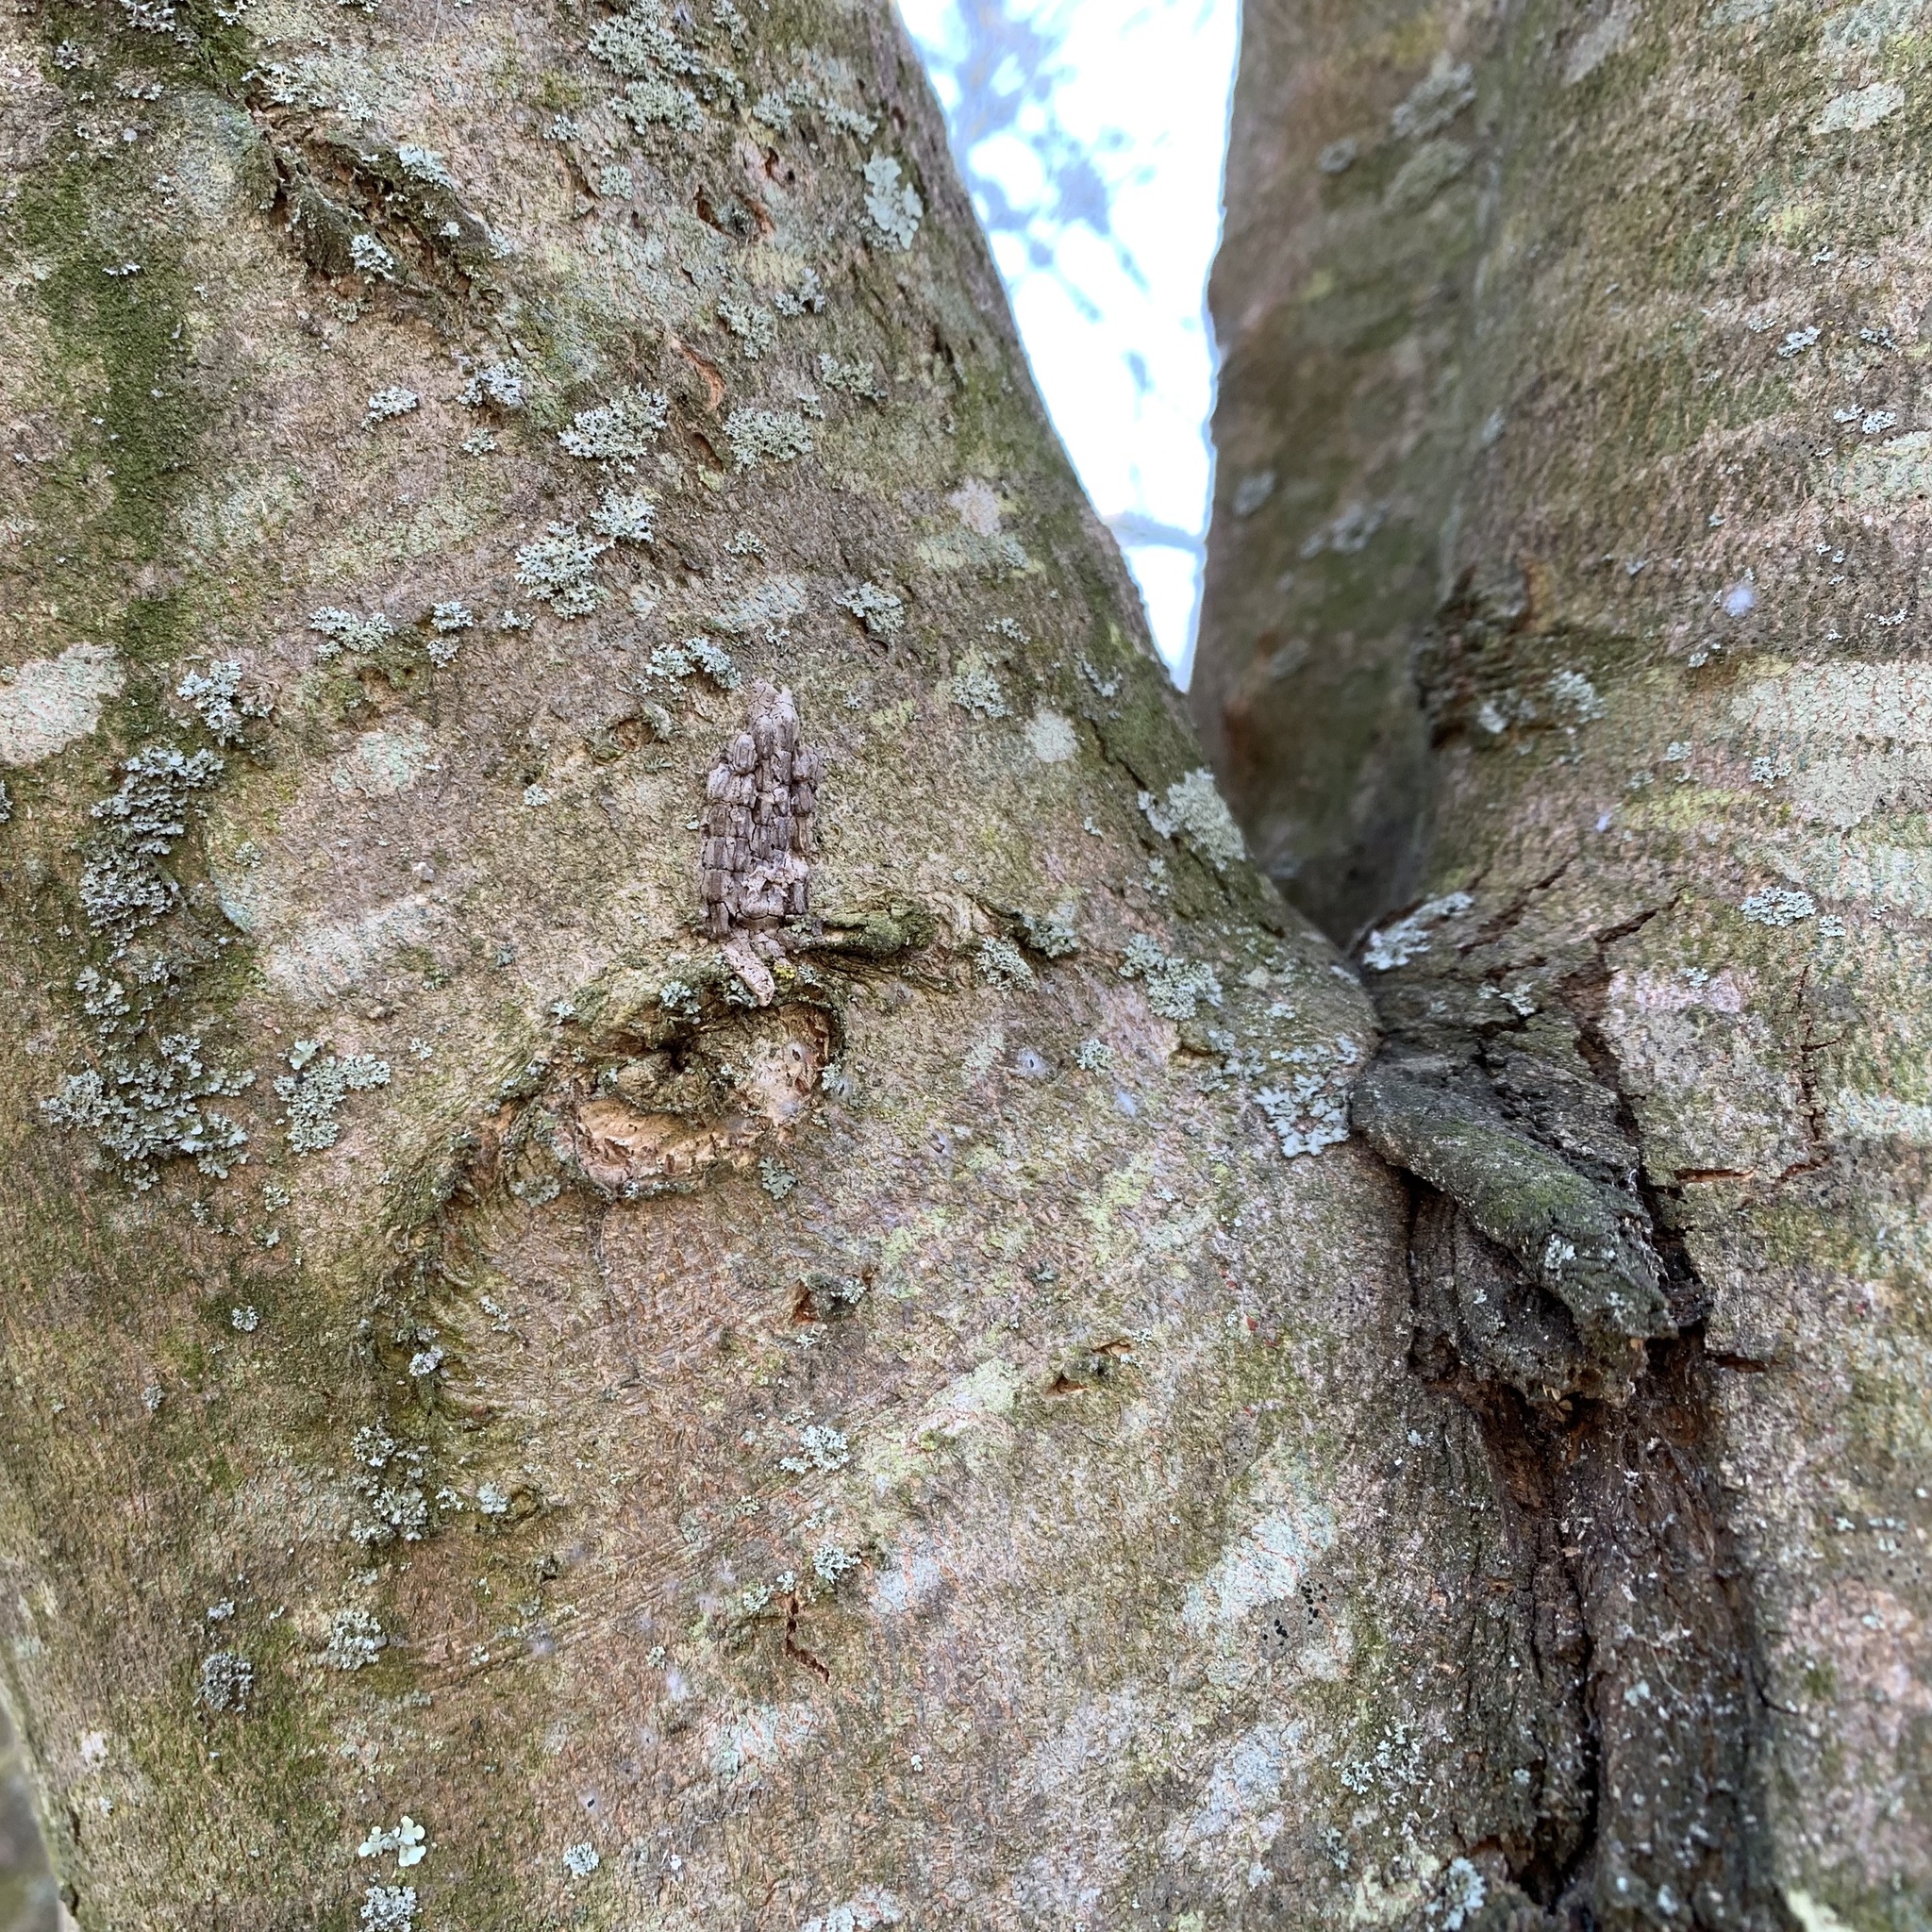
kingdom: Animalia
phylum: Arthropoda
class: Insecta
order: Hemiptera
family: Fulgoridae
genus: Lycorma
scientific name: Lycorma delicatula
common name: Spotted lanternfly
